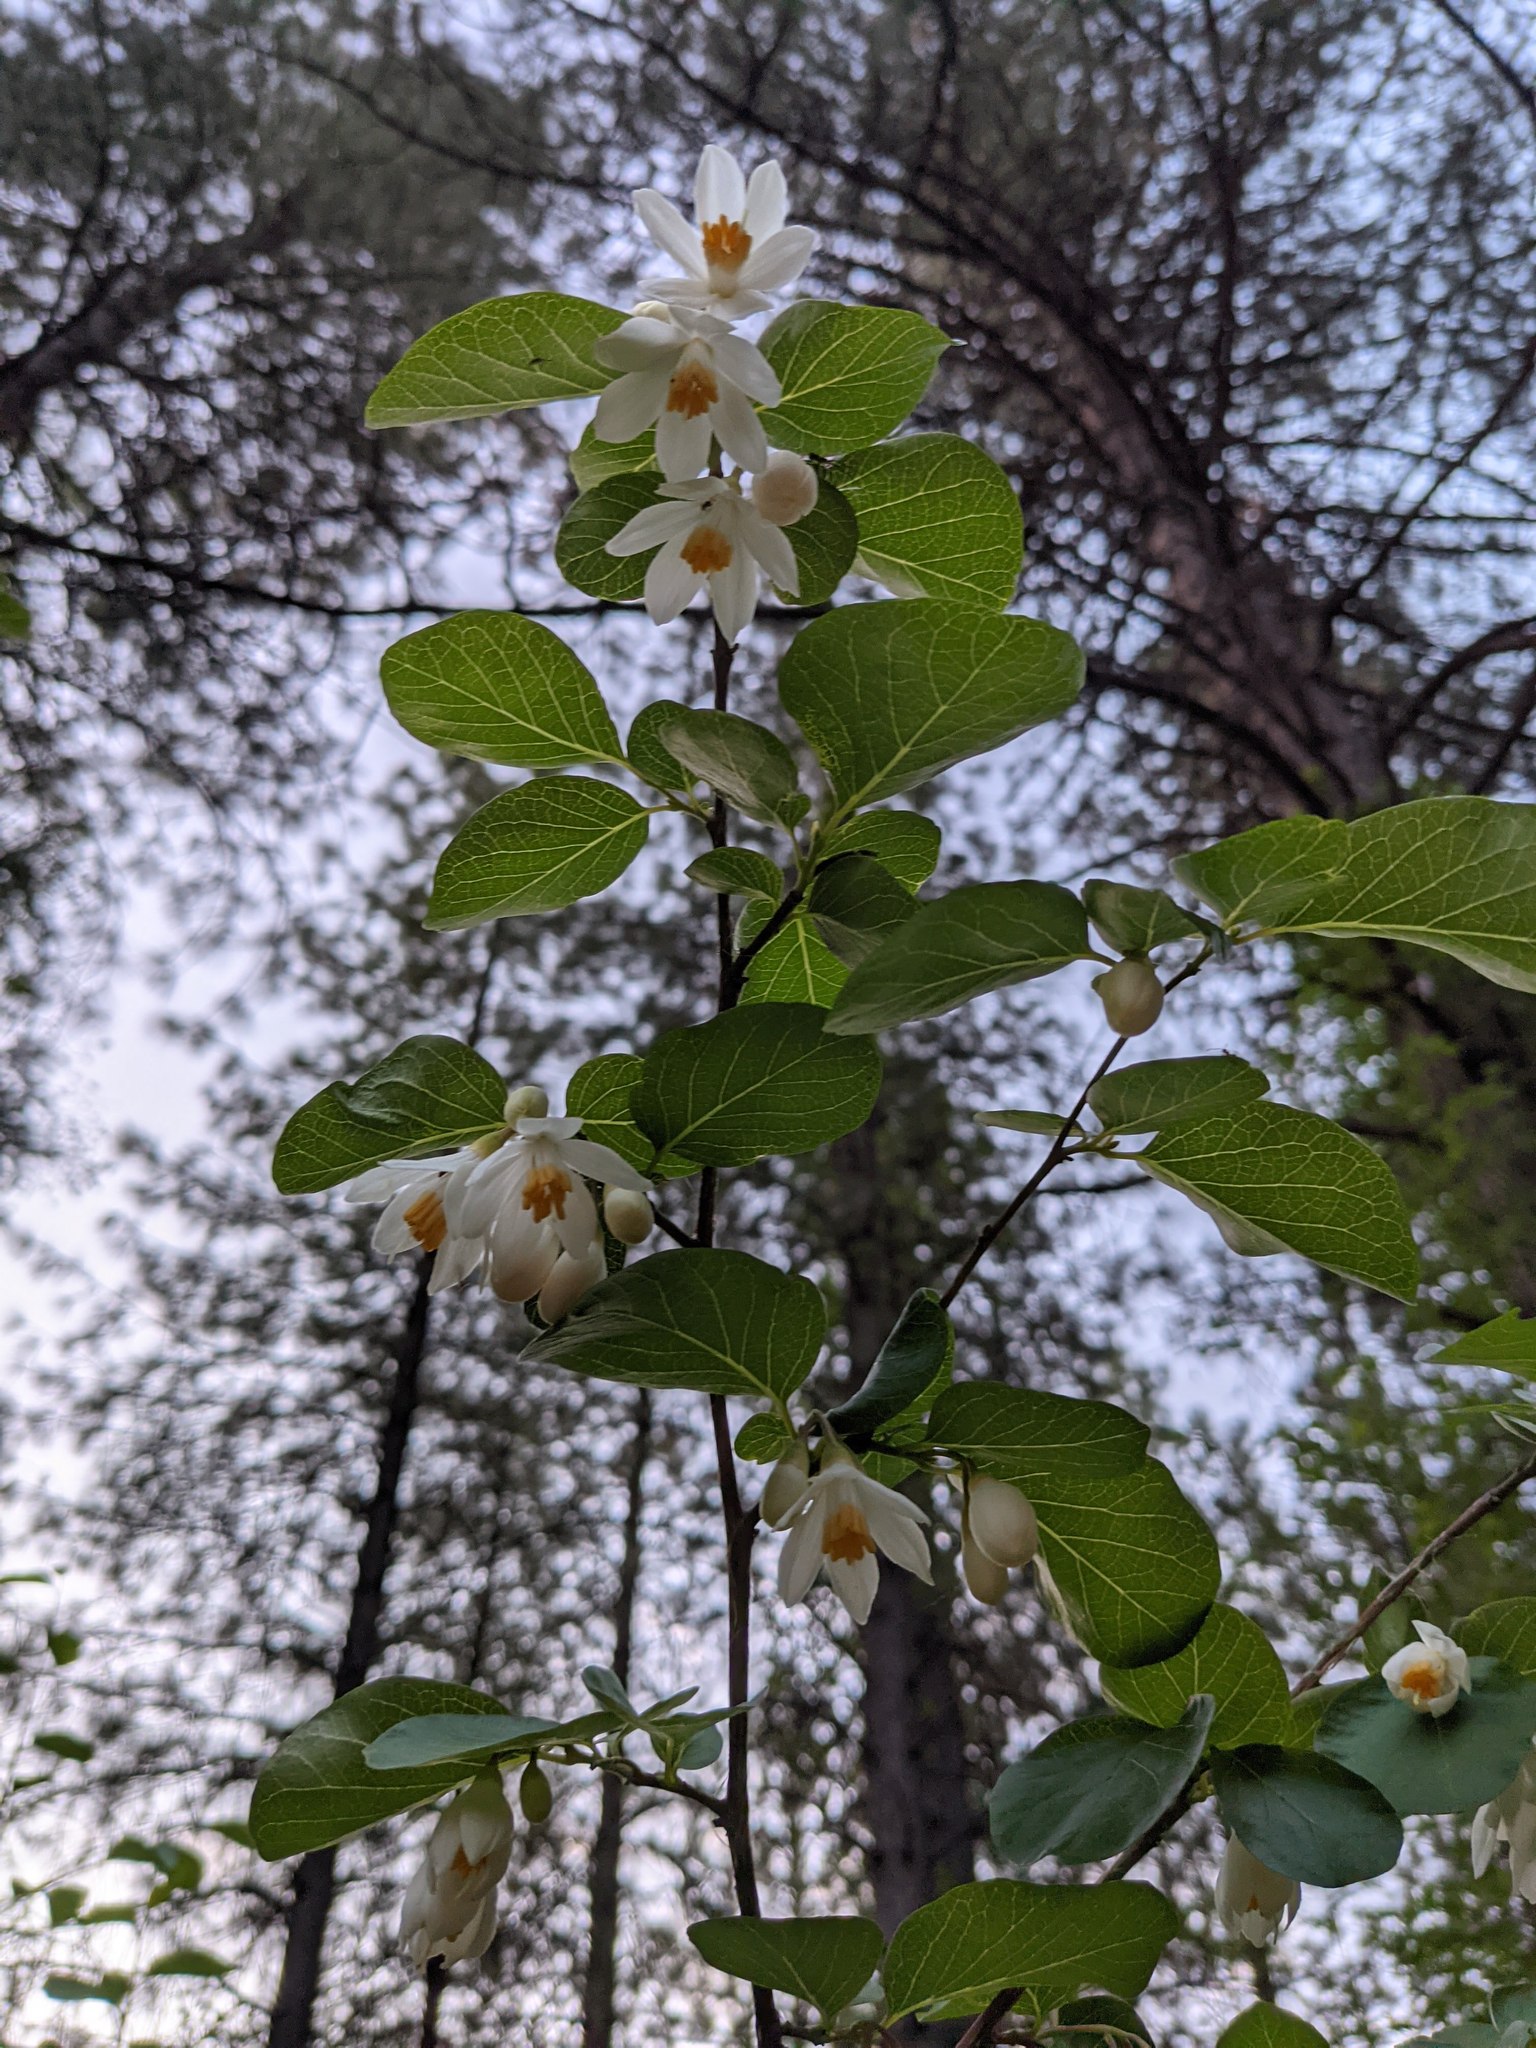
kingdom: Plantae
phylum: Tracheophyta
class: Magnoliopsida
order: Ericales
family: Styracaceae
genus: Styrax
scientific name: Styrax redivivus
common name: California styrax
